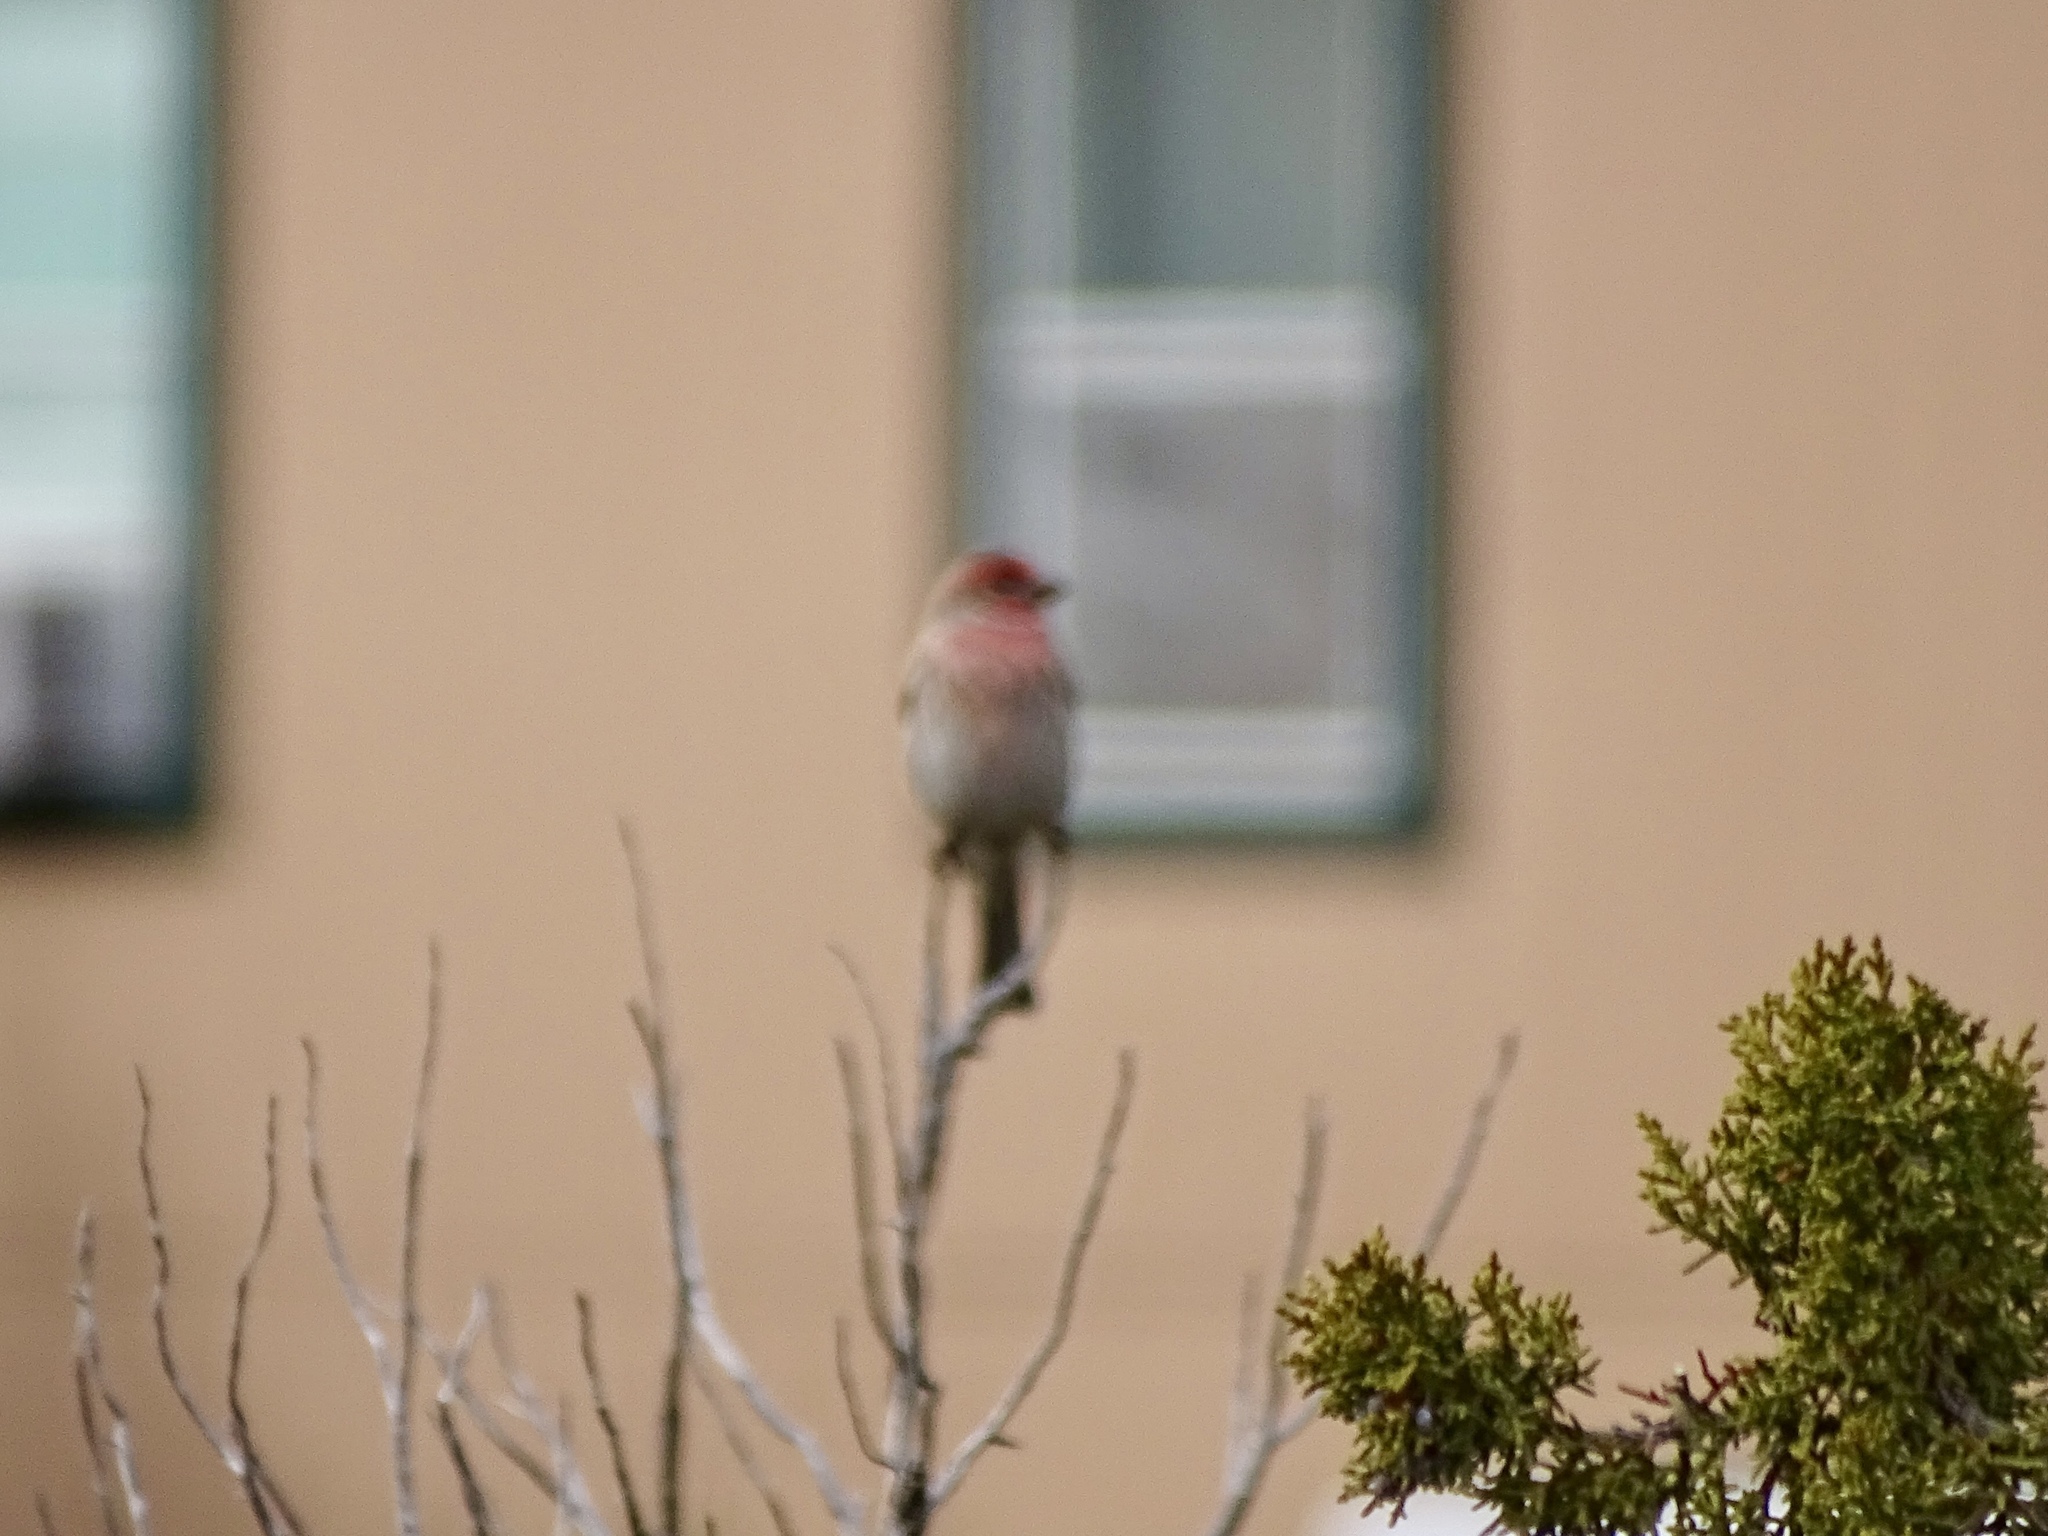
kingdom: Animalia
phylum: Chordata
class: Aves
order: Passeriformes
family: Fringillidae
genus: Haemorhous
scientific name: Haemorhous mexicanus
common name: House finch
